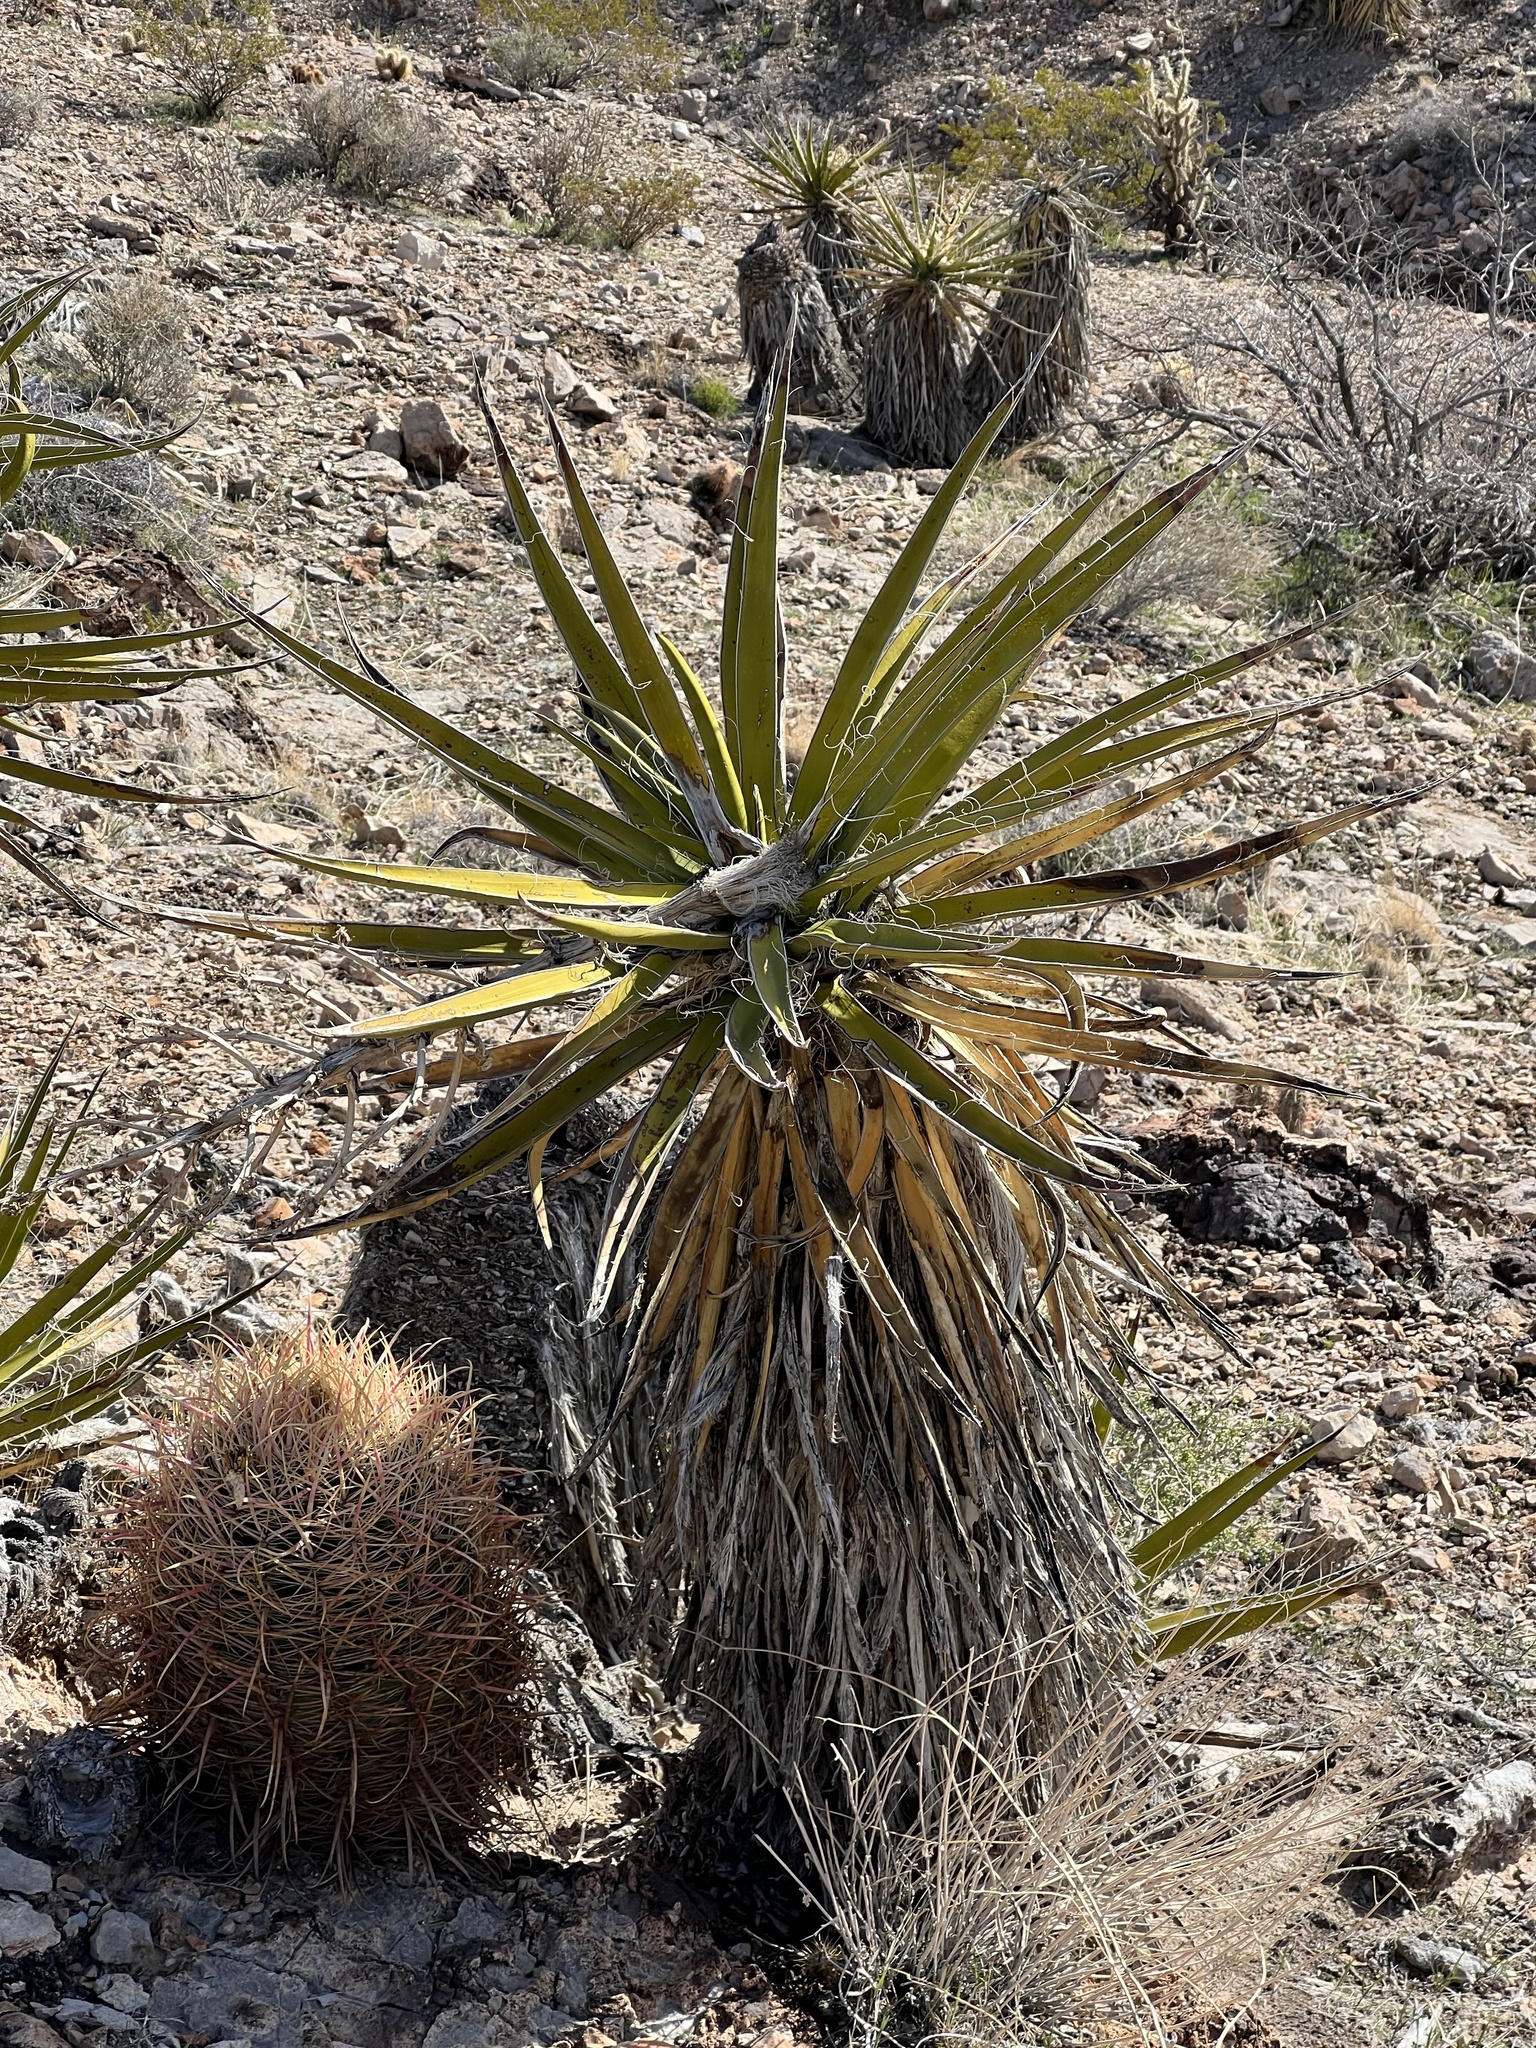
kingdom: Plantae
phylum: Tracheophyta
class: Liliopsida
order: Asparagales
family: Asparagaceae
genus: Yucca
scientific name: Yucca schidigera
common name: Mojave yucca
